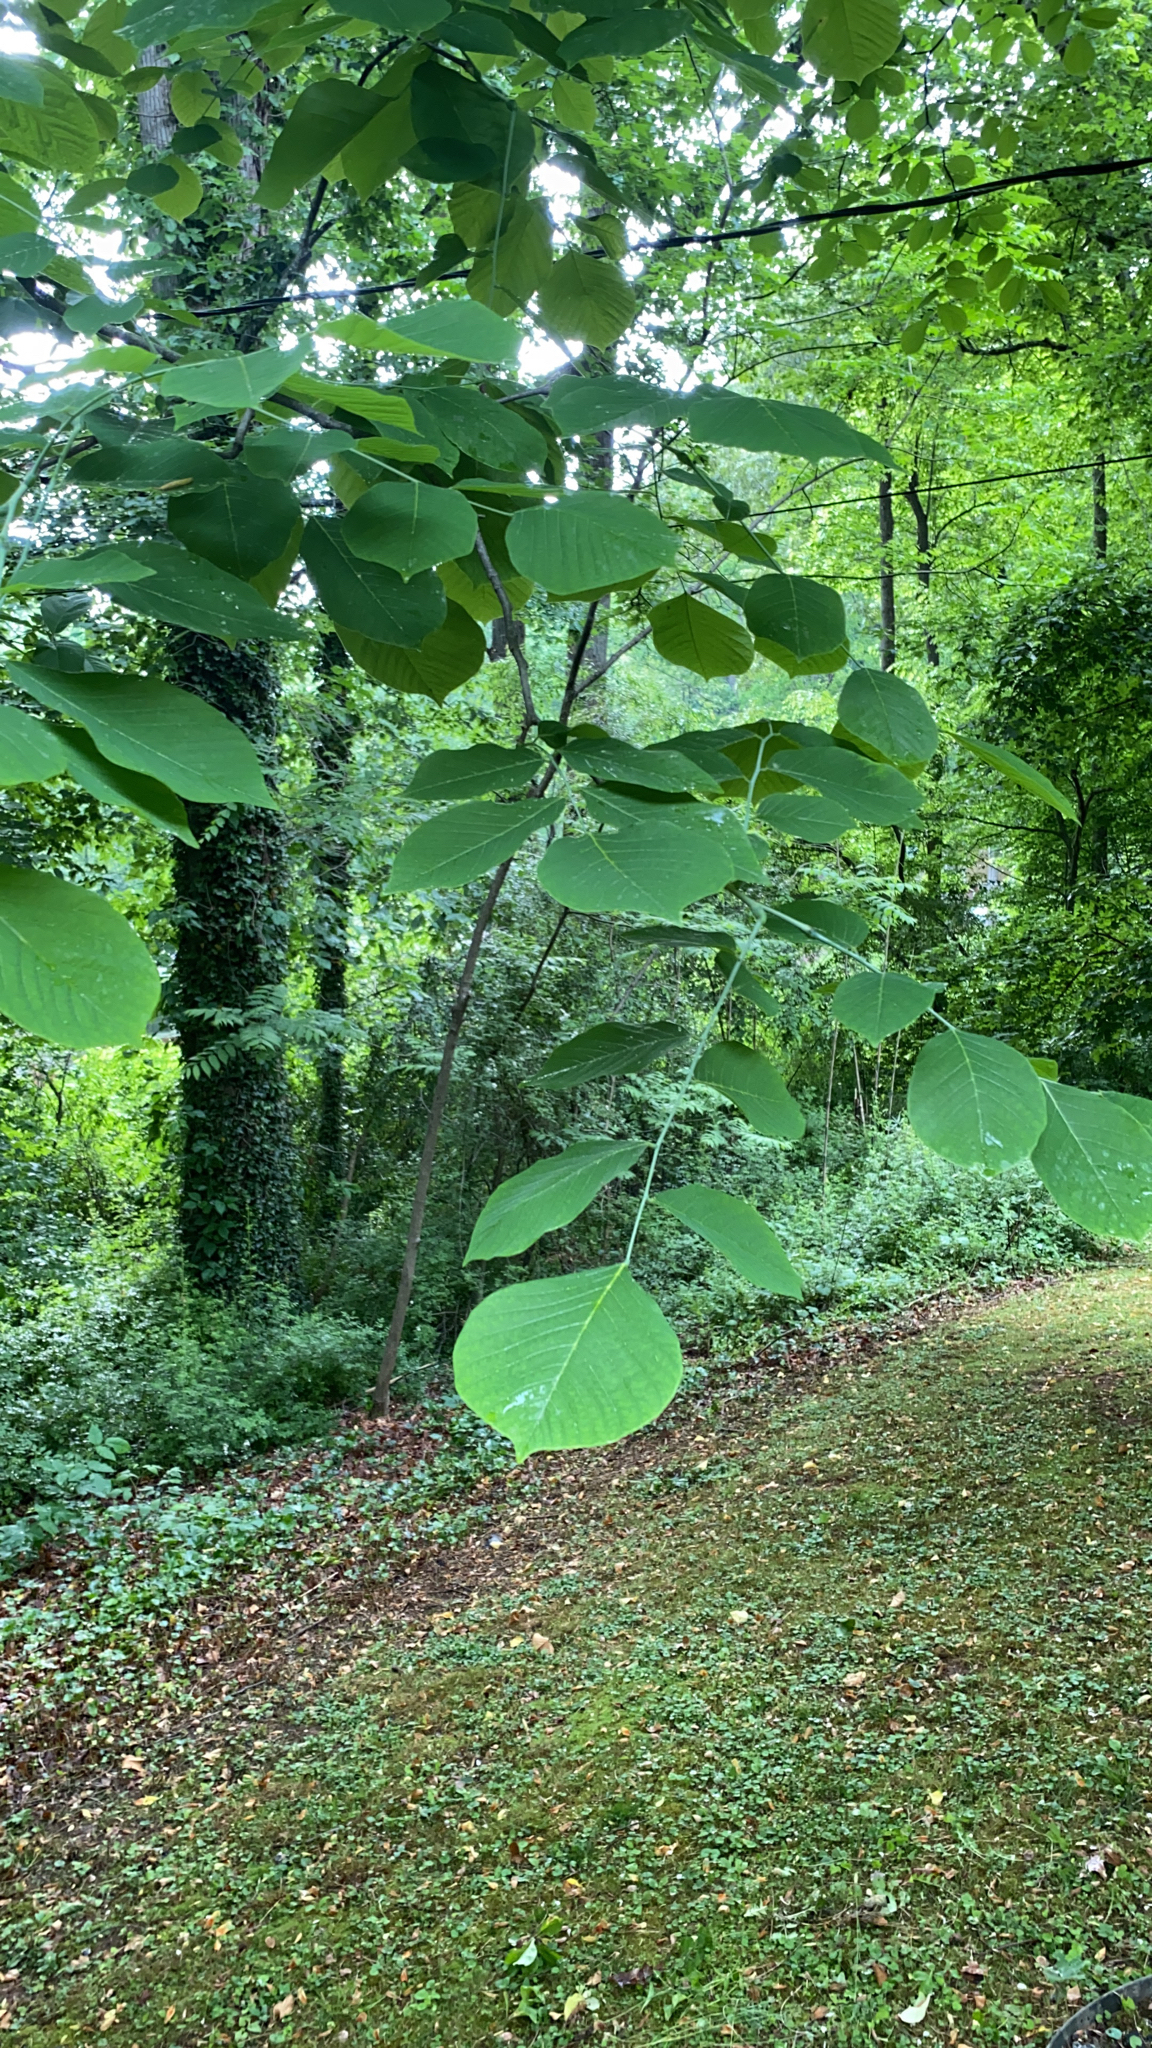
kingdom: Plantae
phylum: Tracheophyta
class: Magnoliopsida
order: Fabales
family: Fabaceae
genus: Cladrastis
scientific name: Cladrastis kentukea
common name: Kentucky yellow-wood
